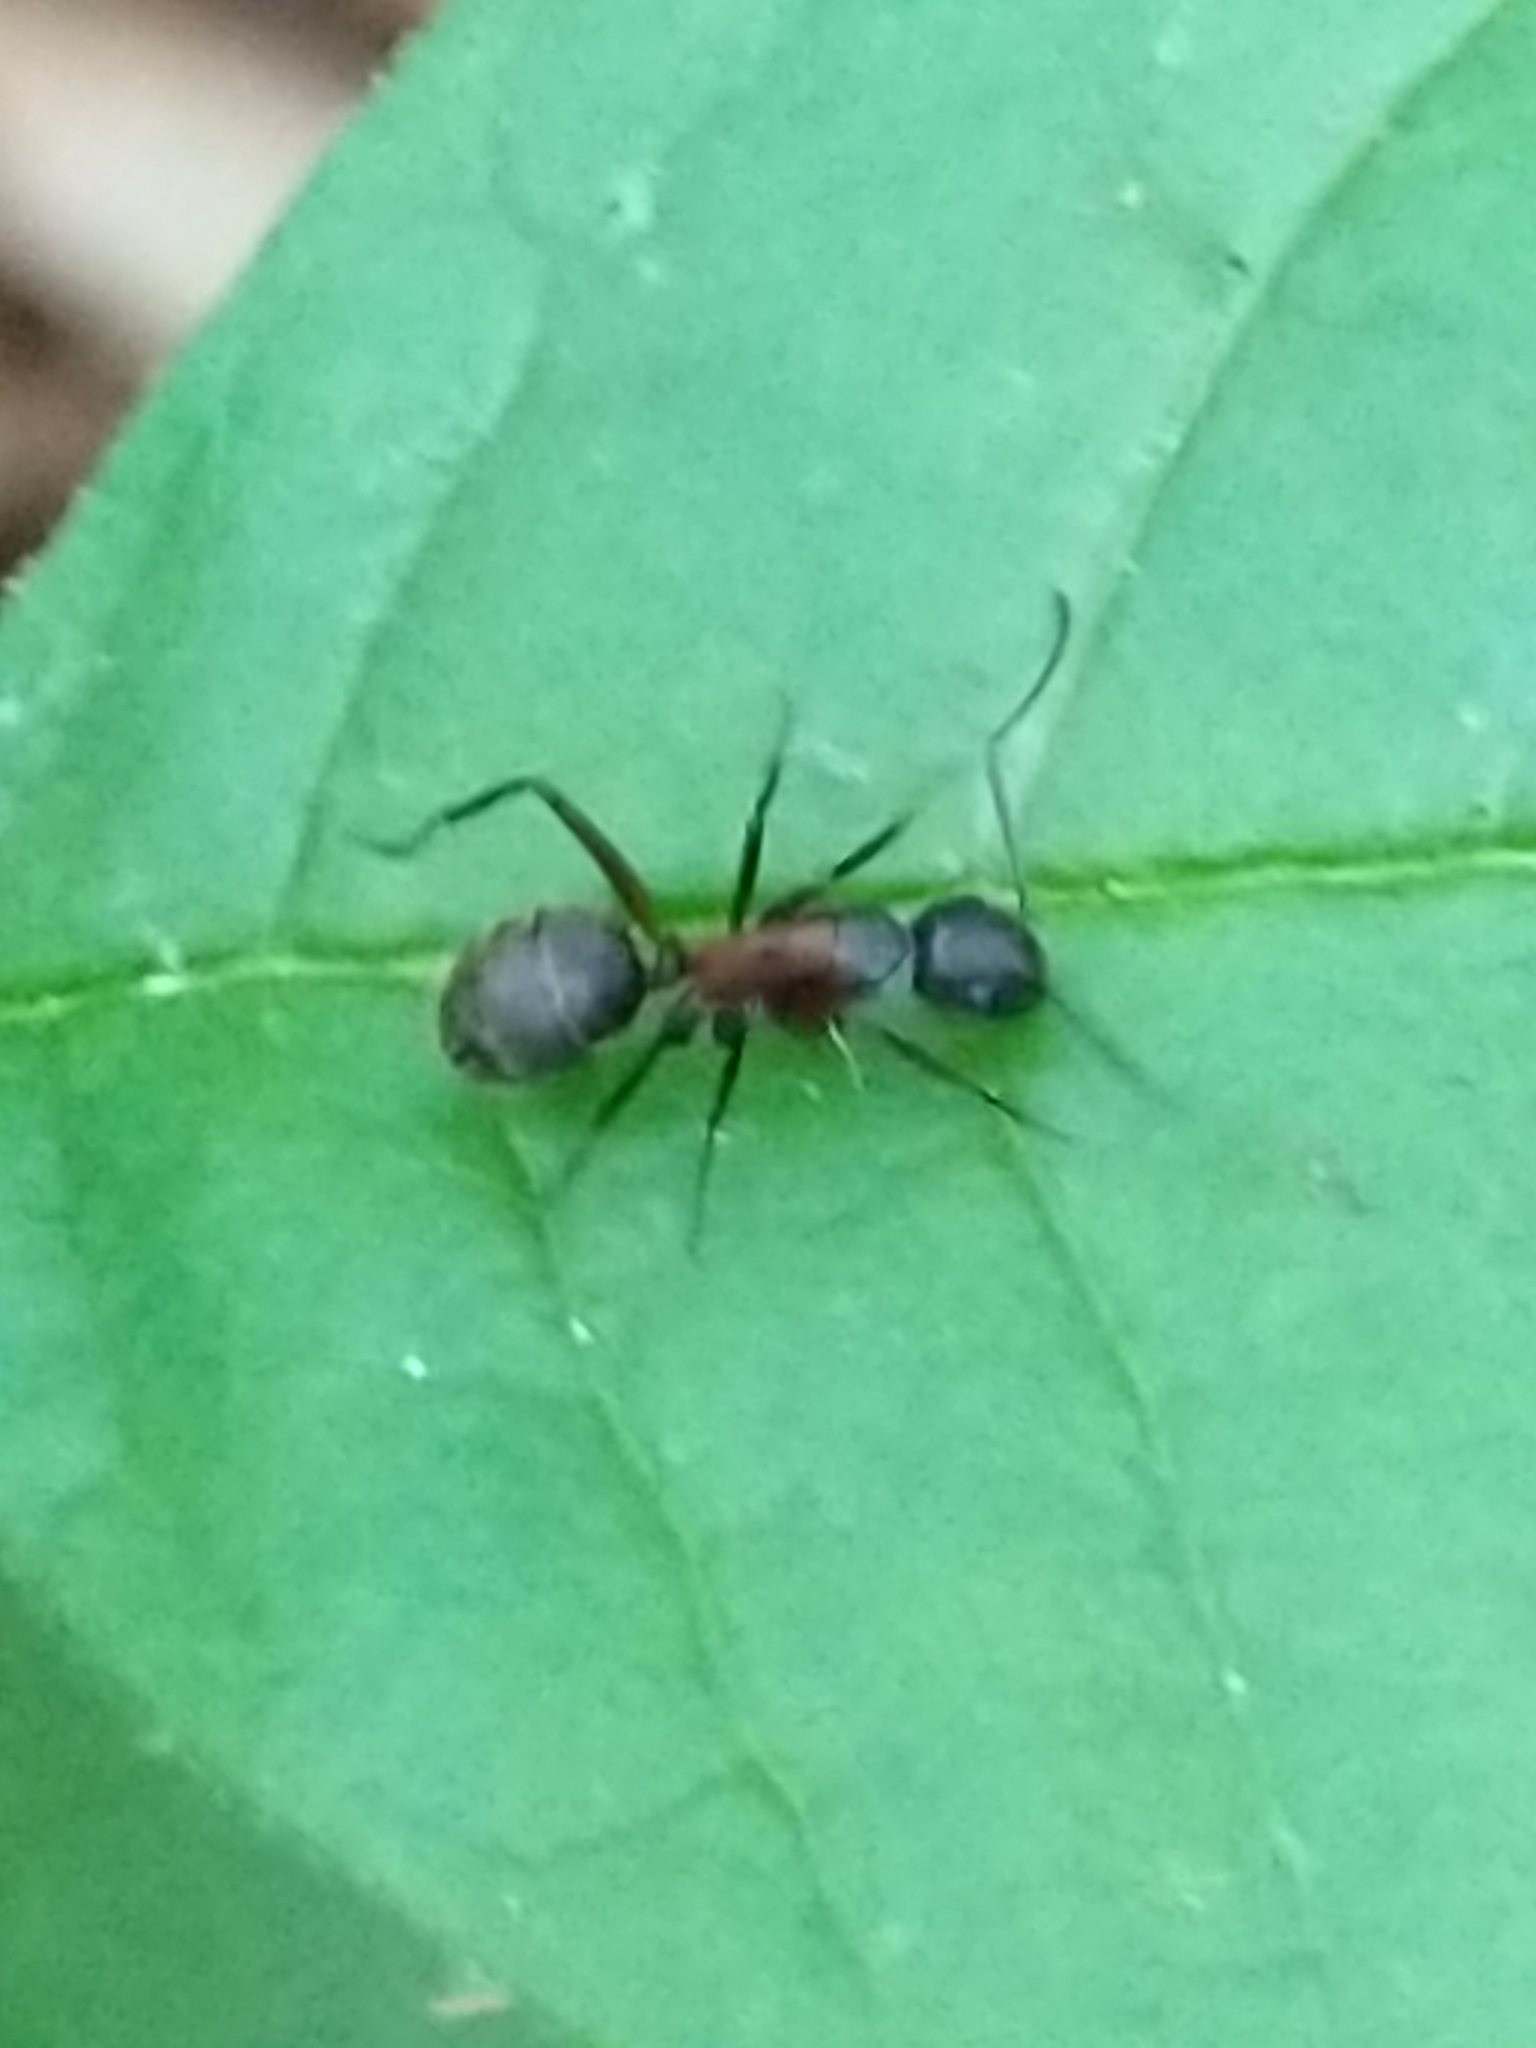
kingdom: Animalia
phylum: Arthropoda
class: Insecta
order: Hymenoptera
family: Formicidae
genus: Camponotus
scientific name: Camponotus chromaiodes
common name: Red carpenter ant
